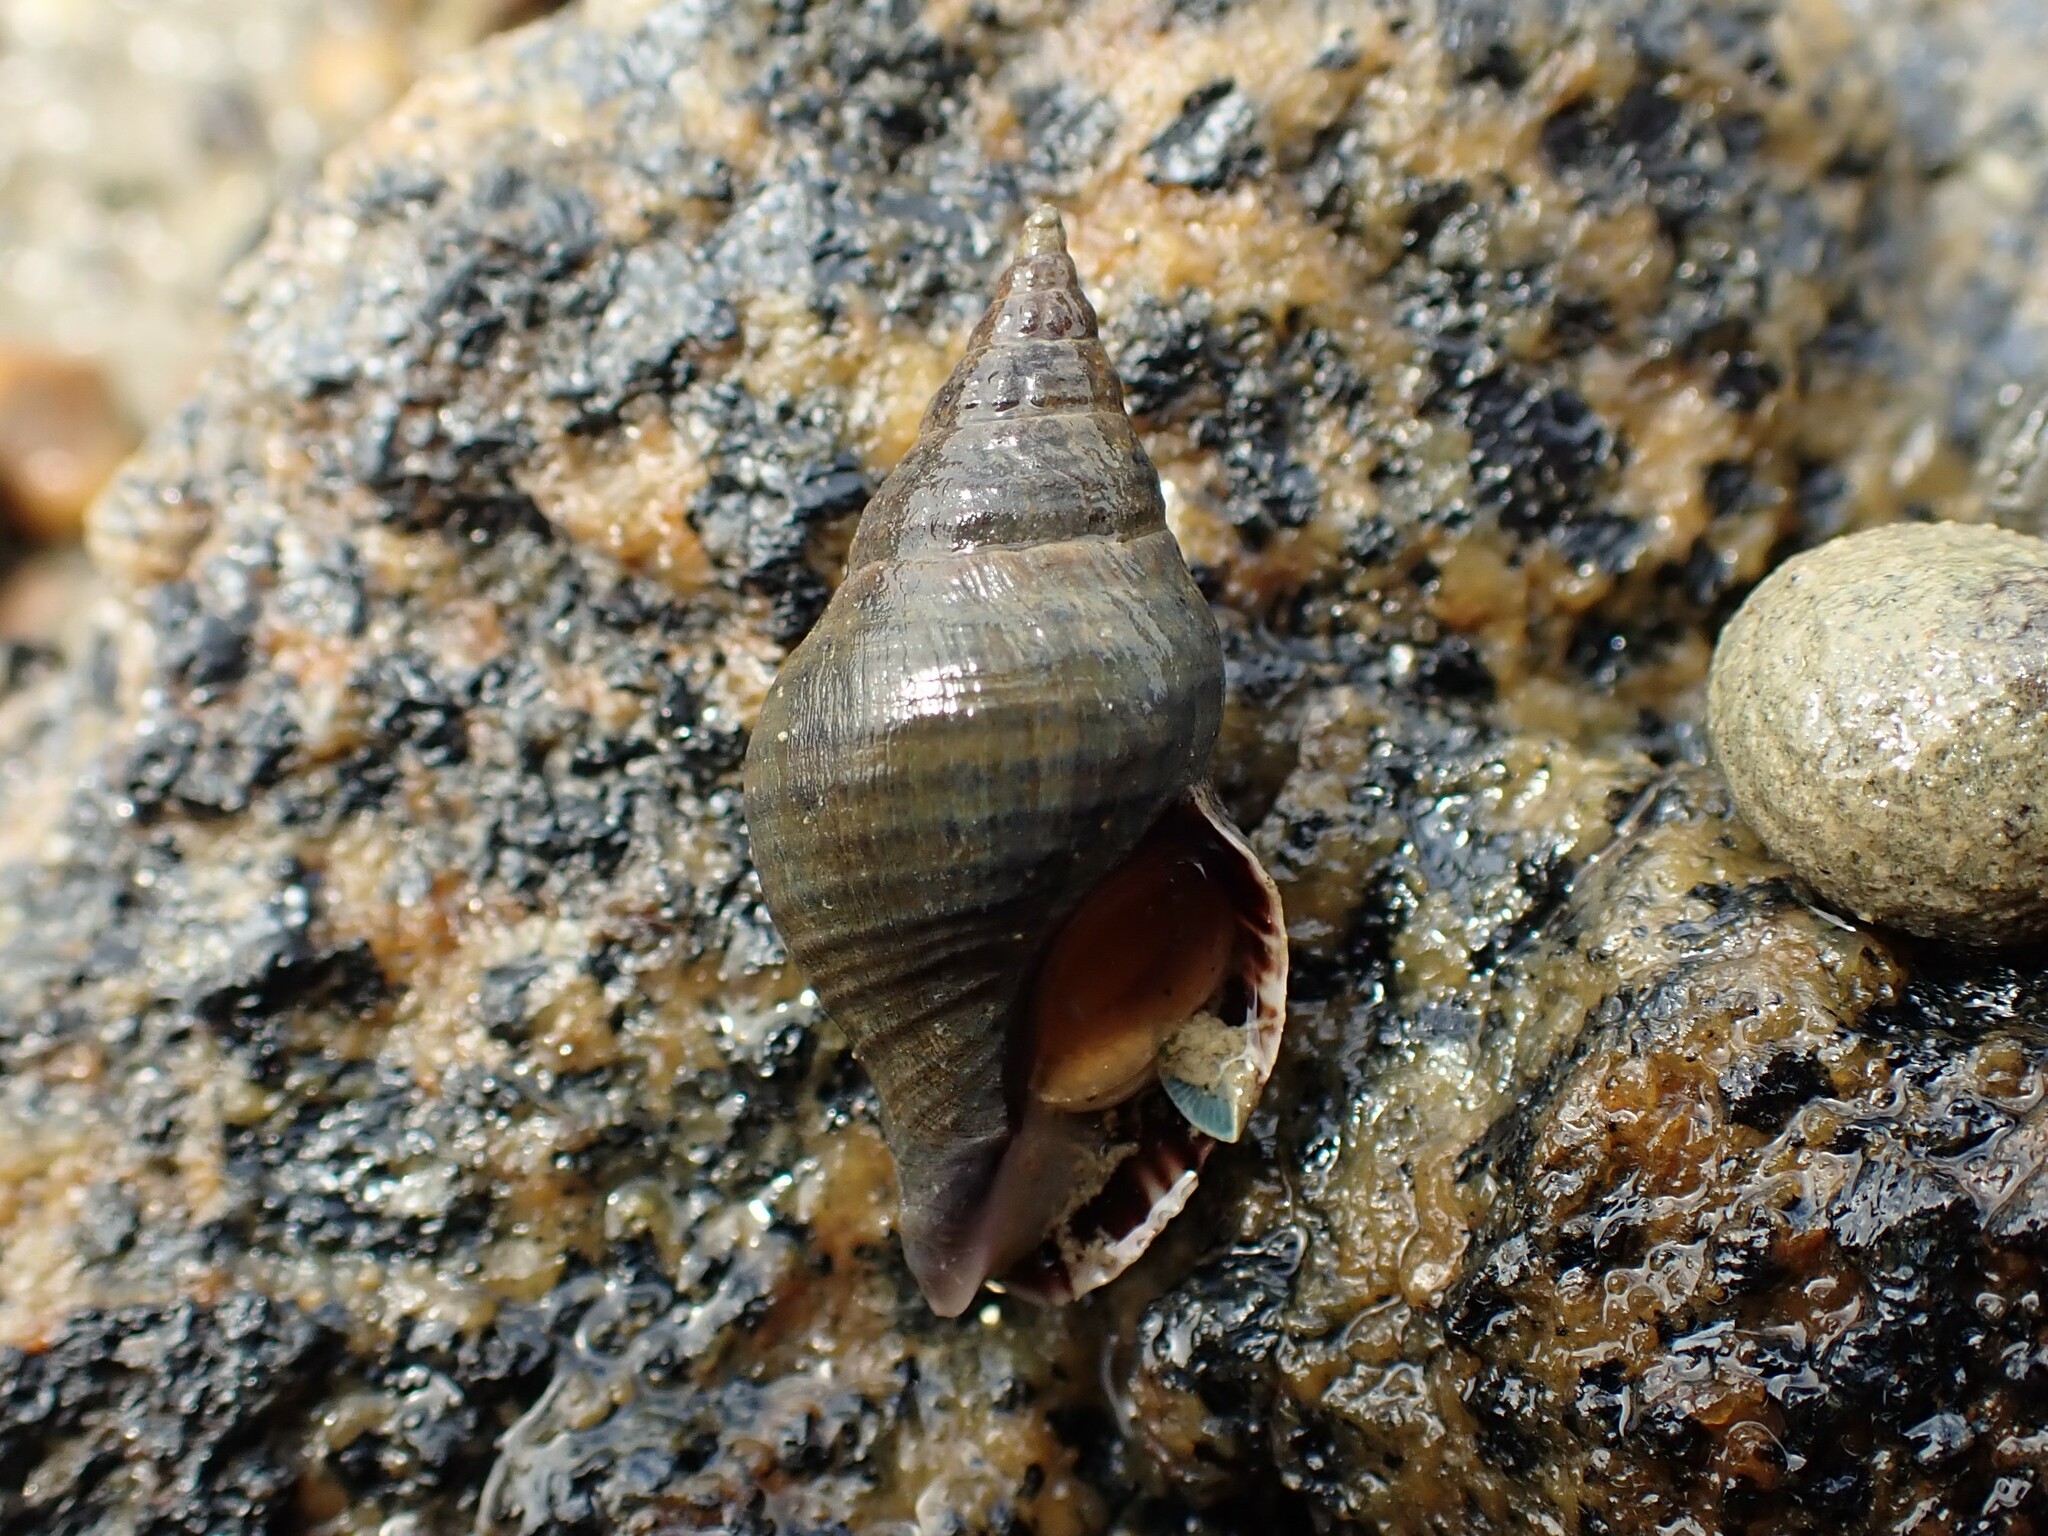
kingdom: Animalia
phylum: Mollusca
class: Gastropoda
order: Neogastropoda
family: Tudiclidae
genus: Buccinulum
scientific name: Buccinulum littorinoides
